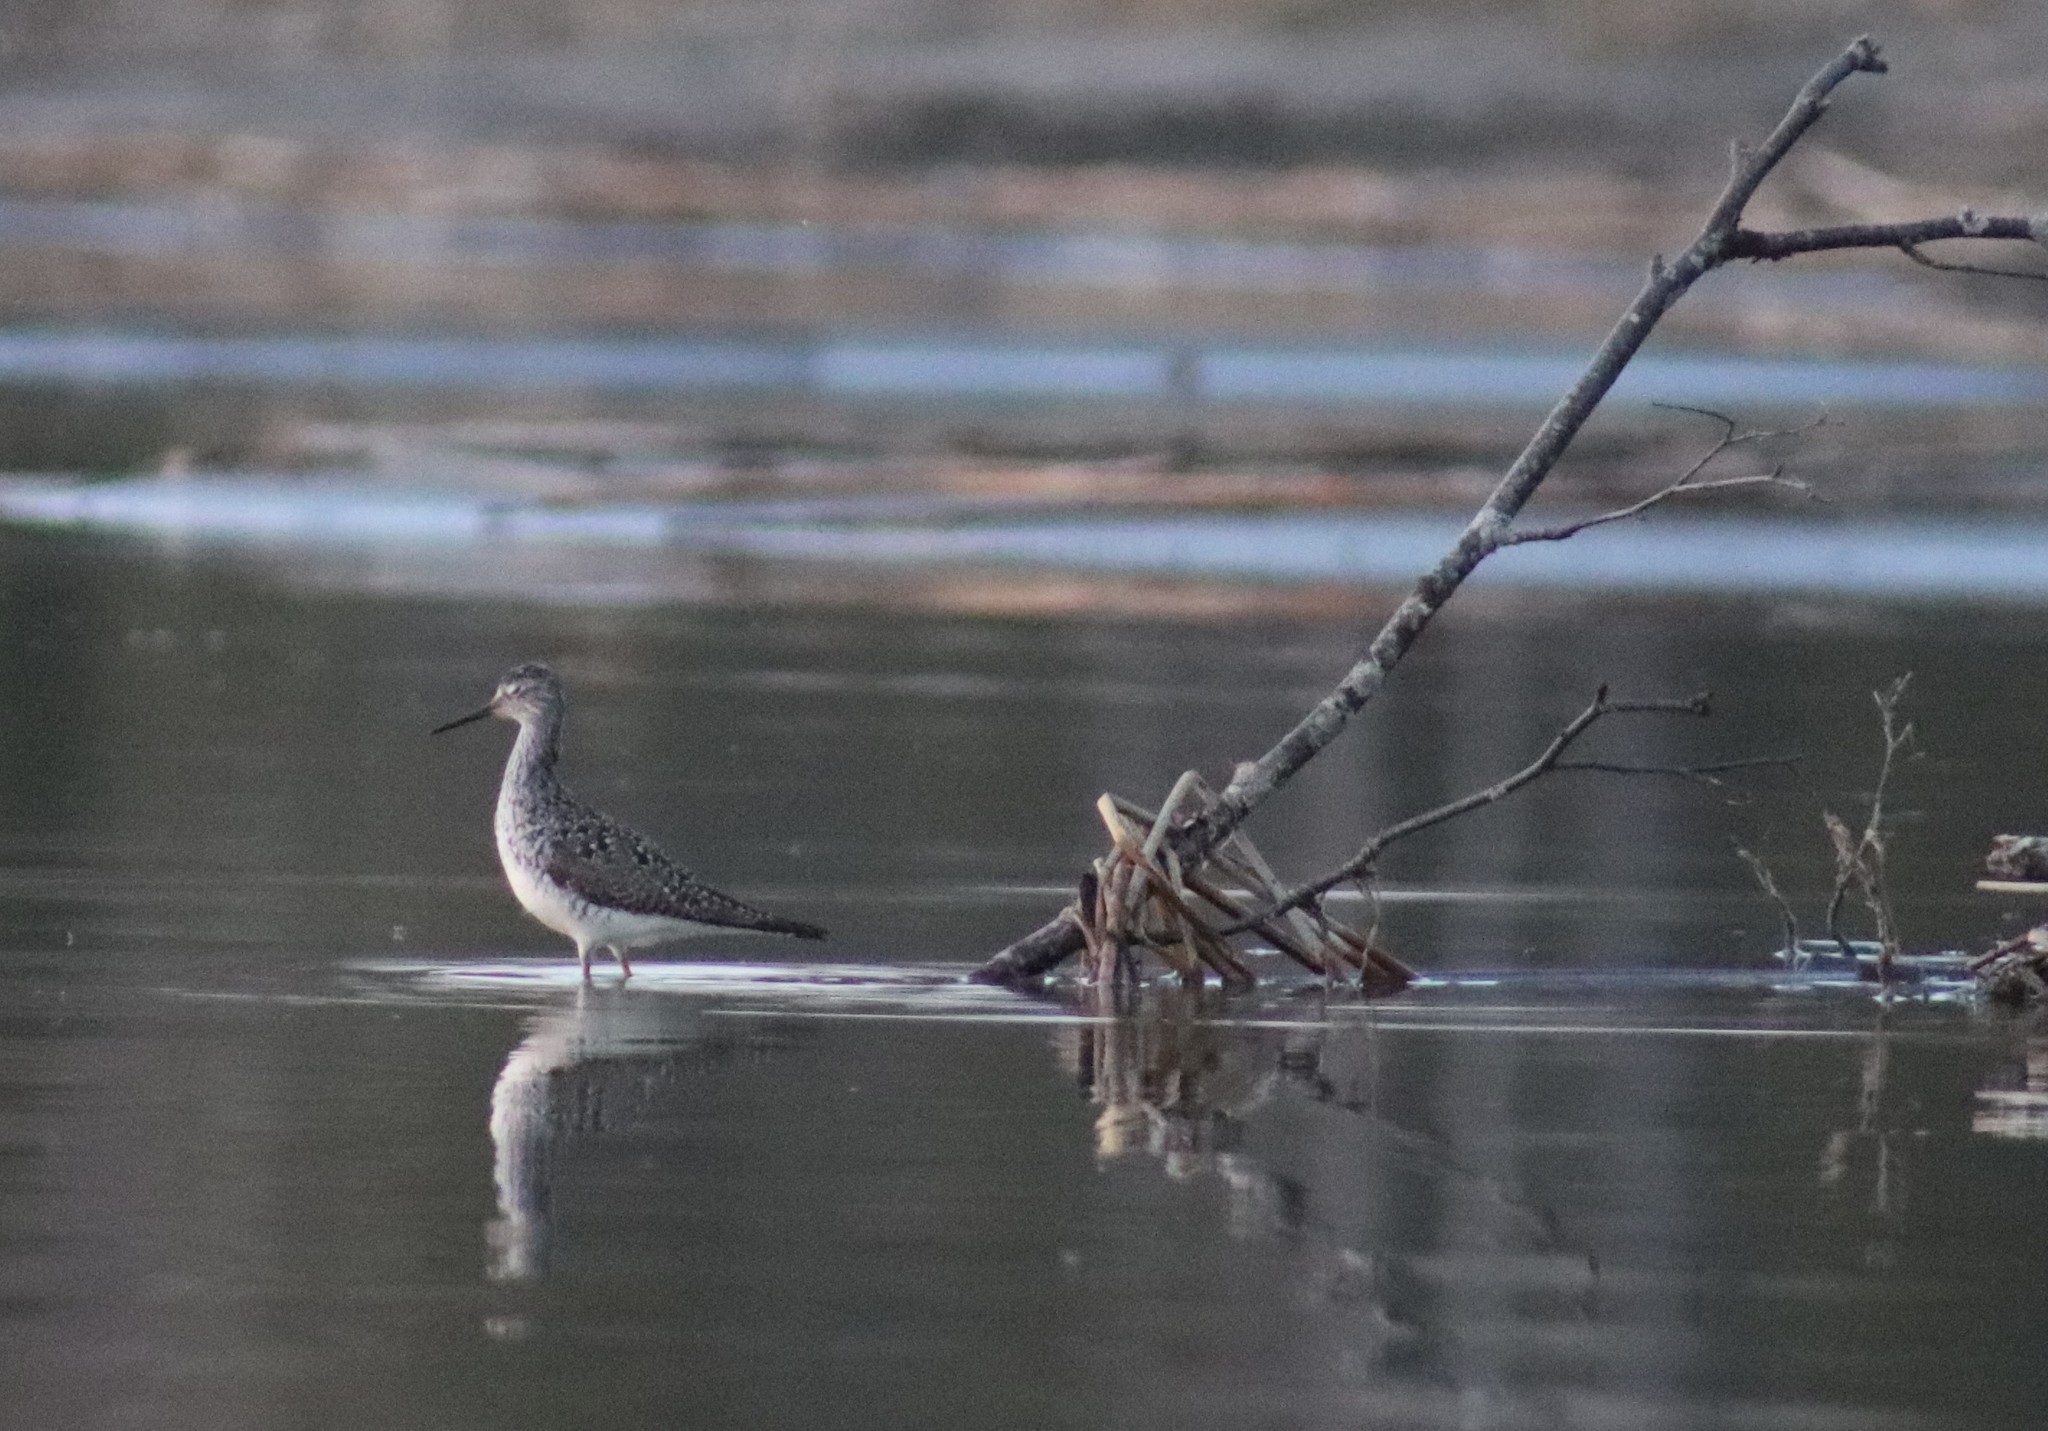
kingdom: Animalia
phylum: Chordata
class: Aves
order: Charadriiformes
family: Scolopacidae
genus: Tringa
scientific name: Tringa flavipes
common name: Lesser yellowlegs
